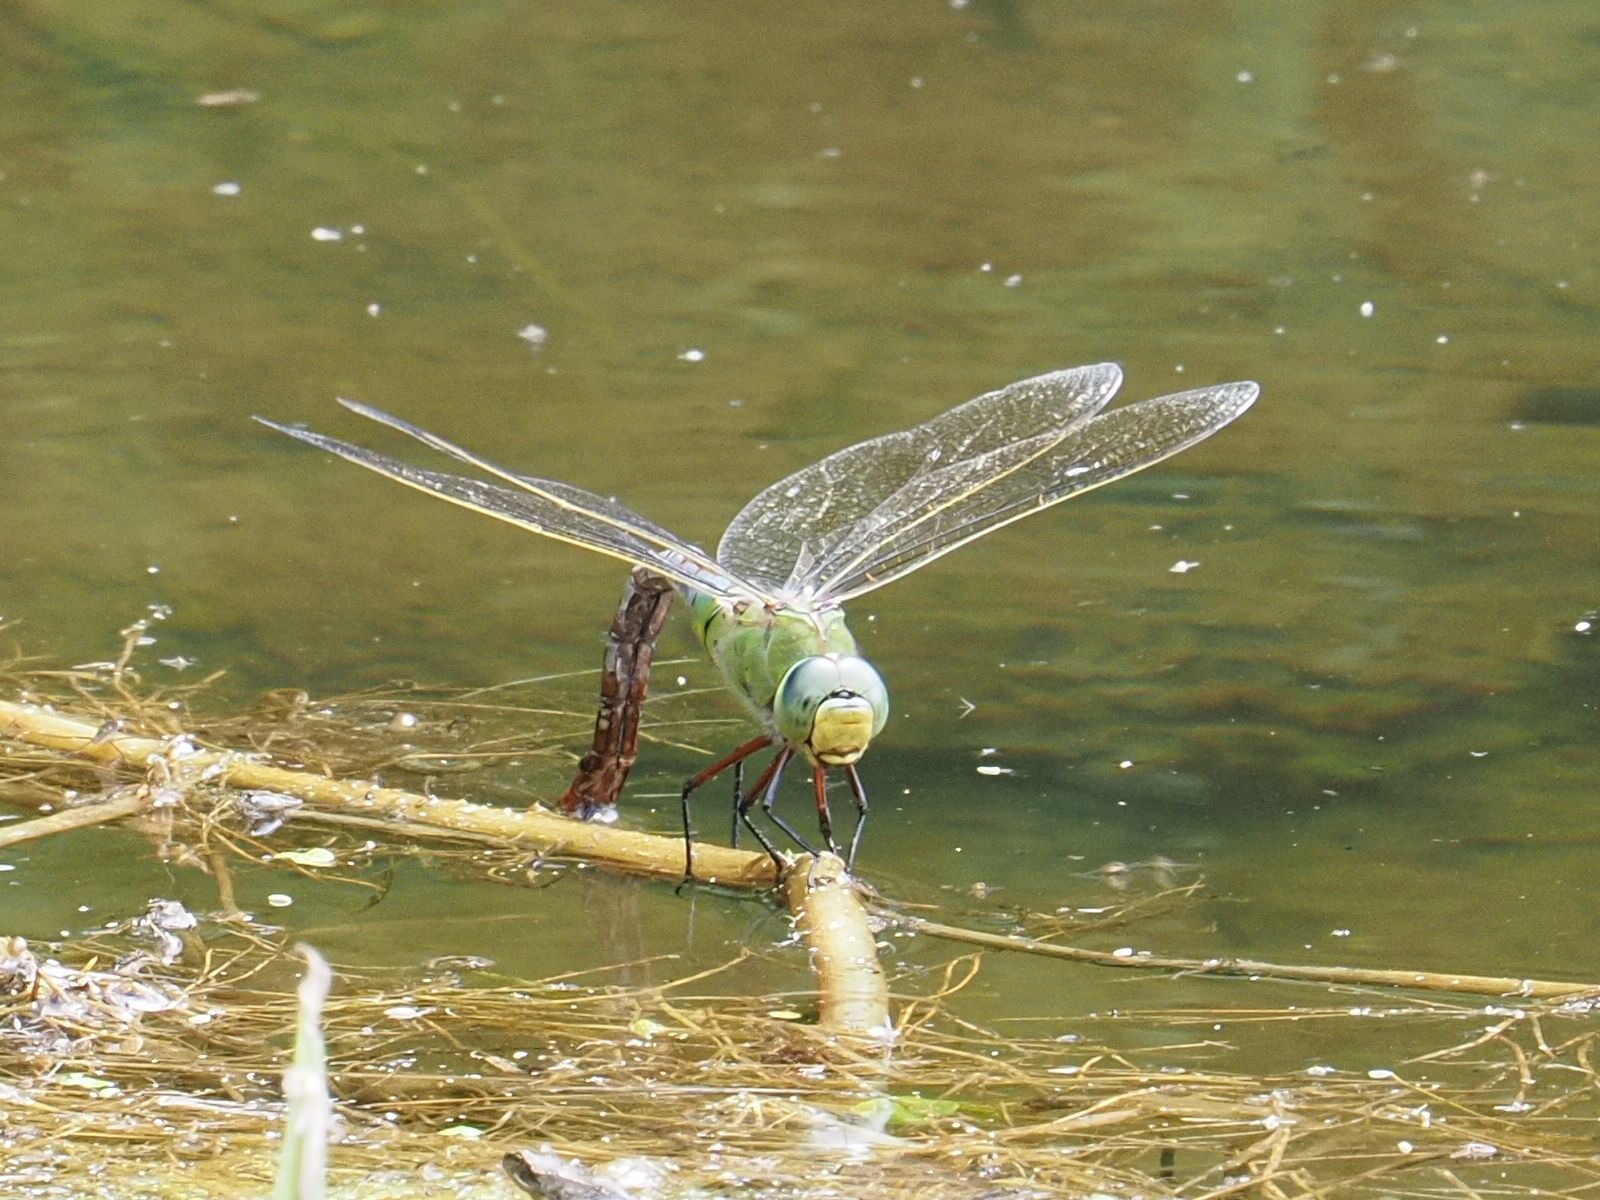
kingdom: Animalia
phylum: Arthropoda
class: Insecta
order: Odonata
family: Aeshnidae
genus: Anax
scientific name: Anax imperator
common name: Emperor dragonfly
